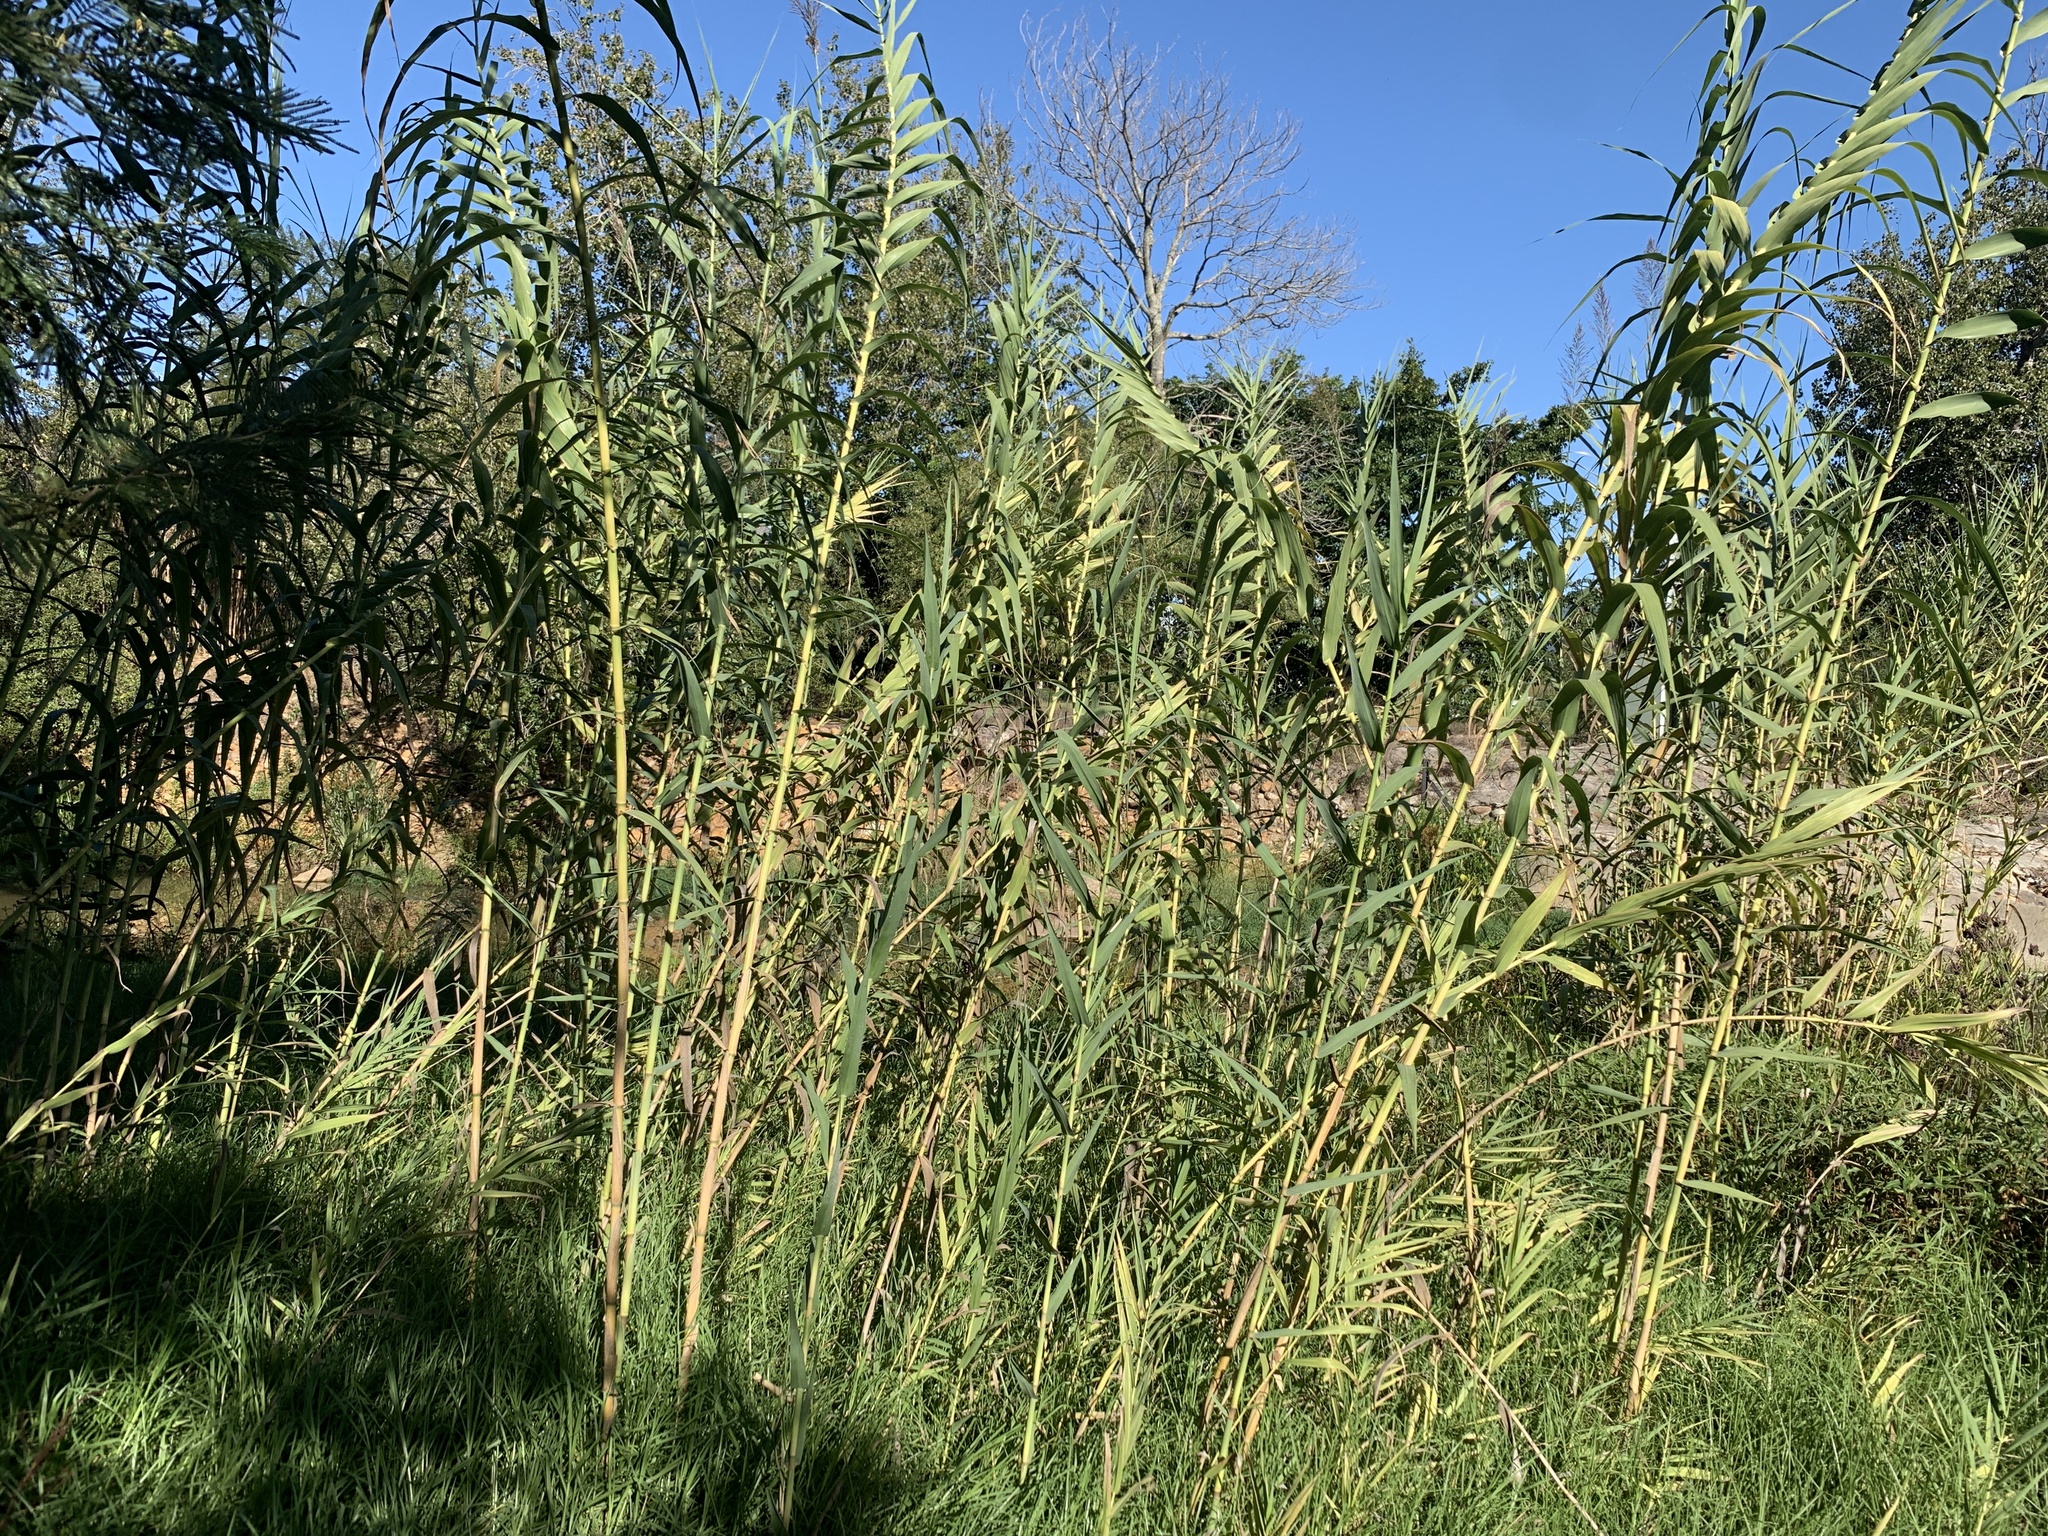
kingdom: Plantae
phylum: Tracheophyta
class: Liliopsida
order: Poales
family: Poaceae
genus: Arundo
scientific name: Arundo donax
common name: Giant reed
